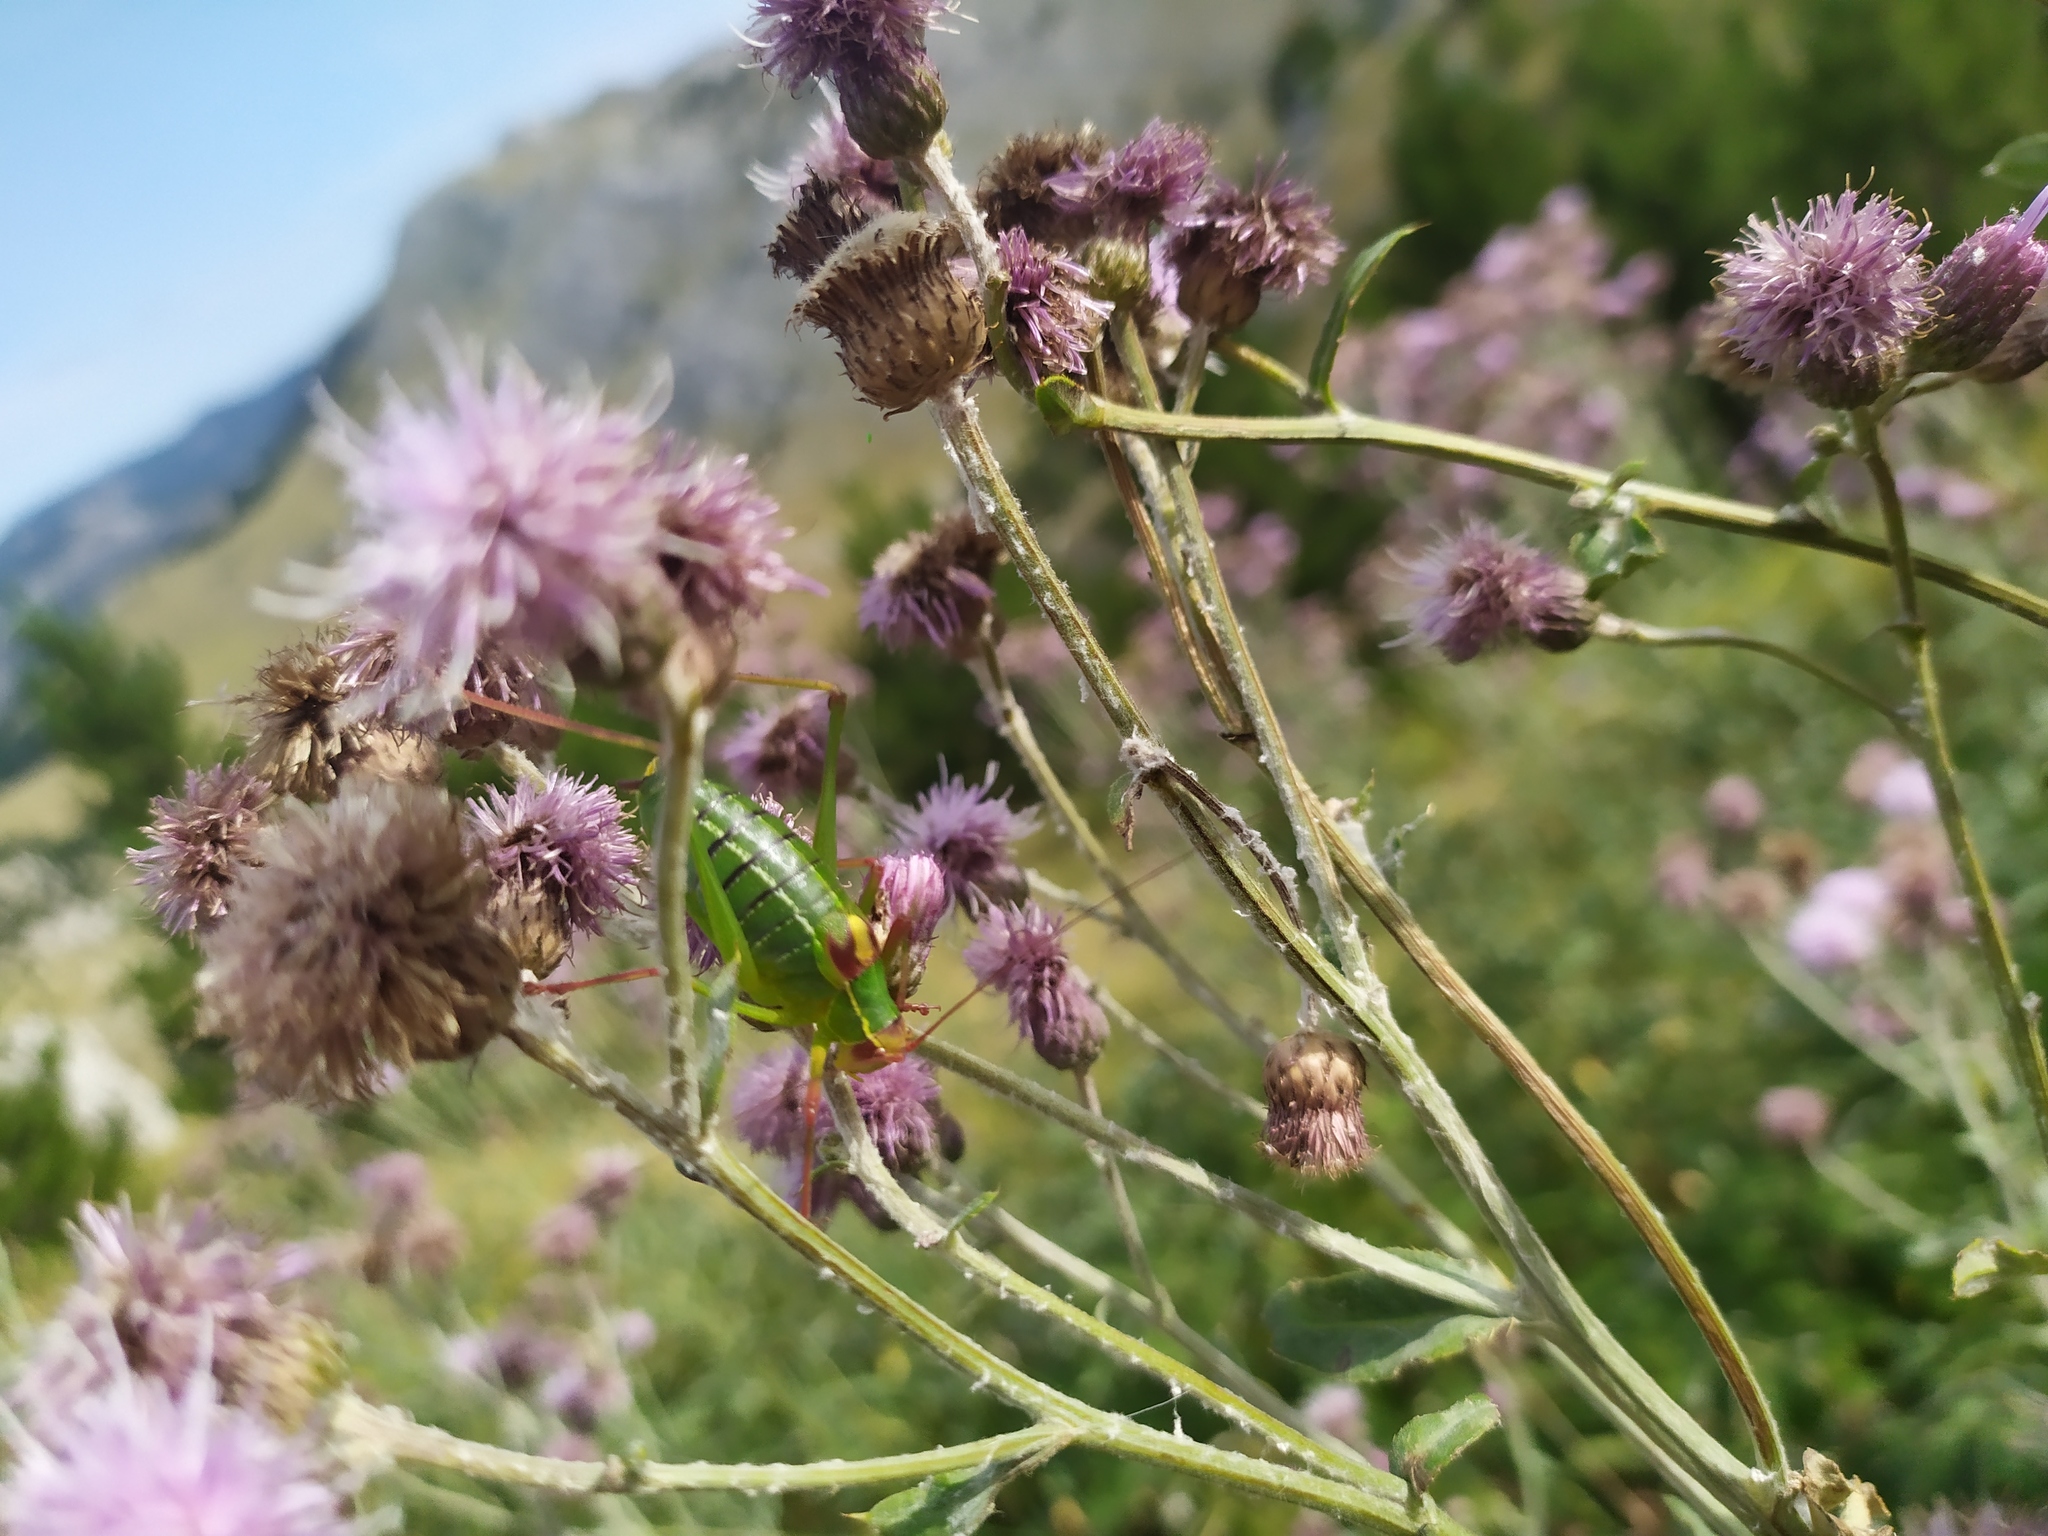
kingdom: Animalia
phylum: Arthropoda
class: Insecta
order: Orthoptera
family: Tettigoniidae
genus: Barbitistes
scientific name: Barbitistes yersini
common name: Balkan saw bush-cricket
